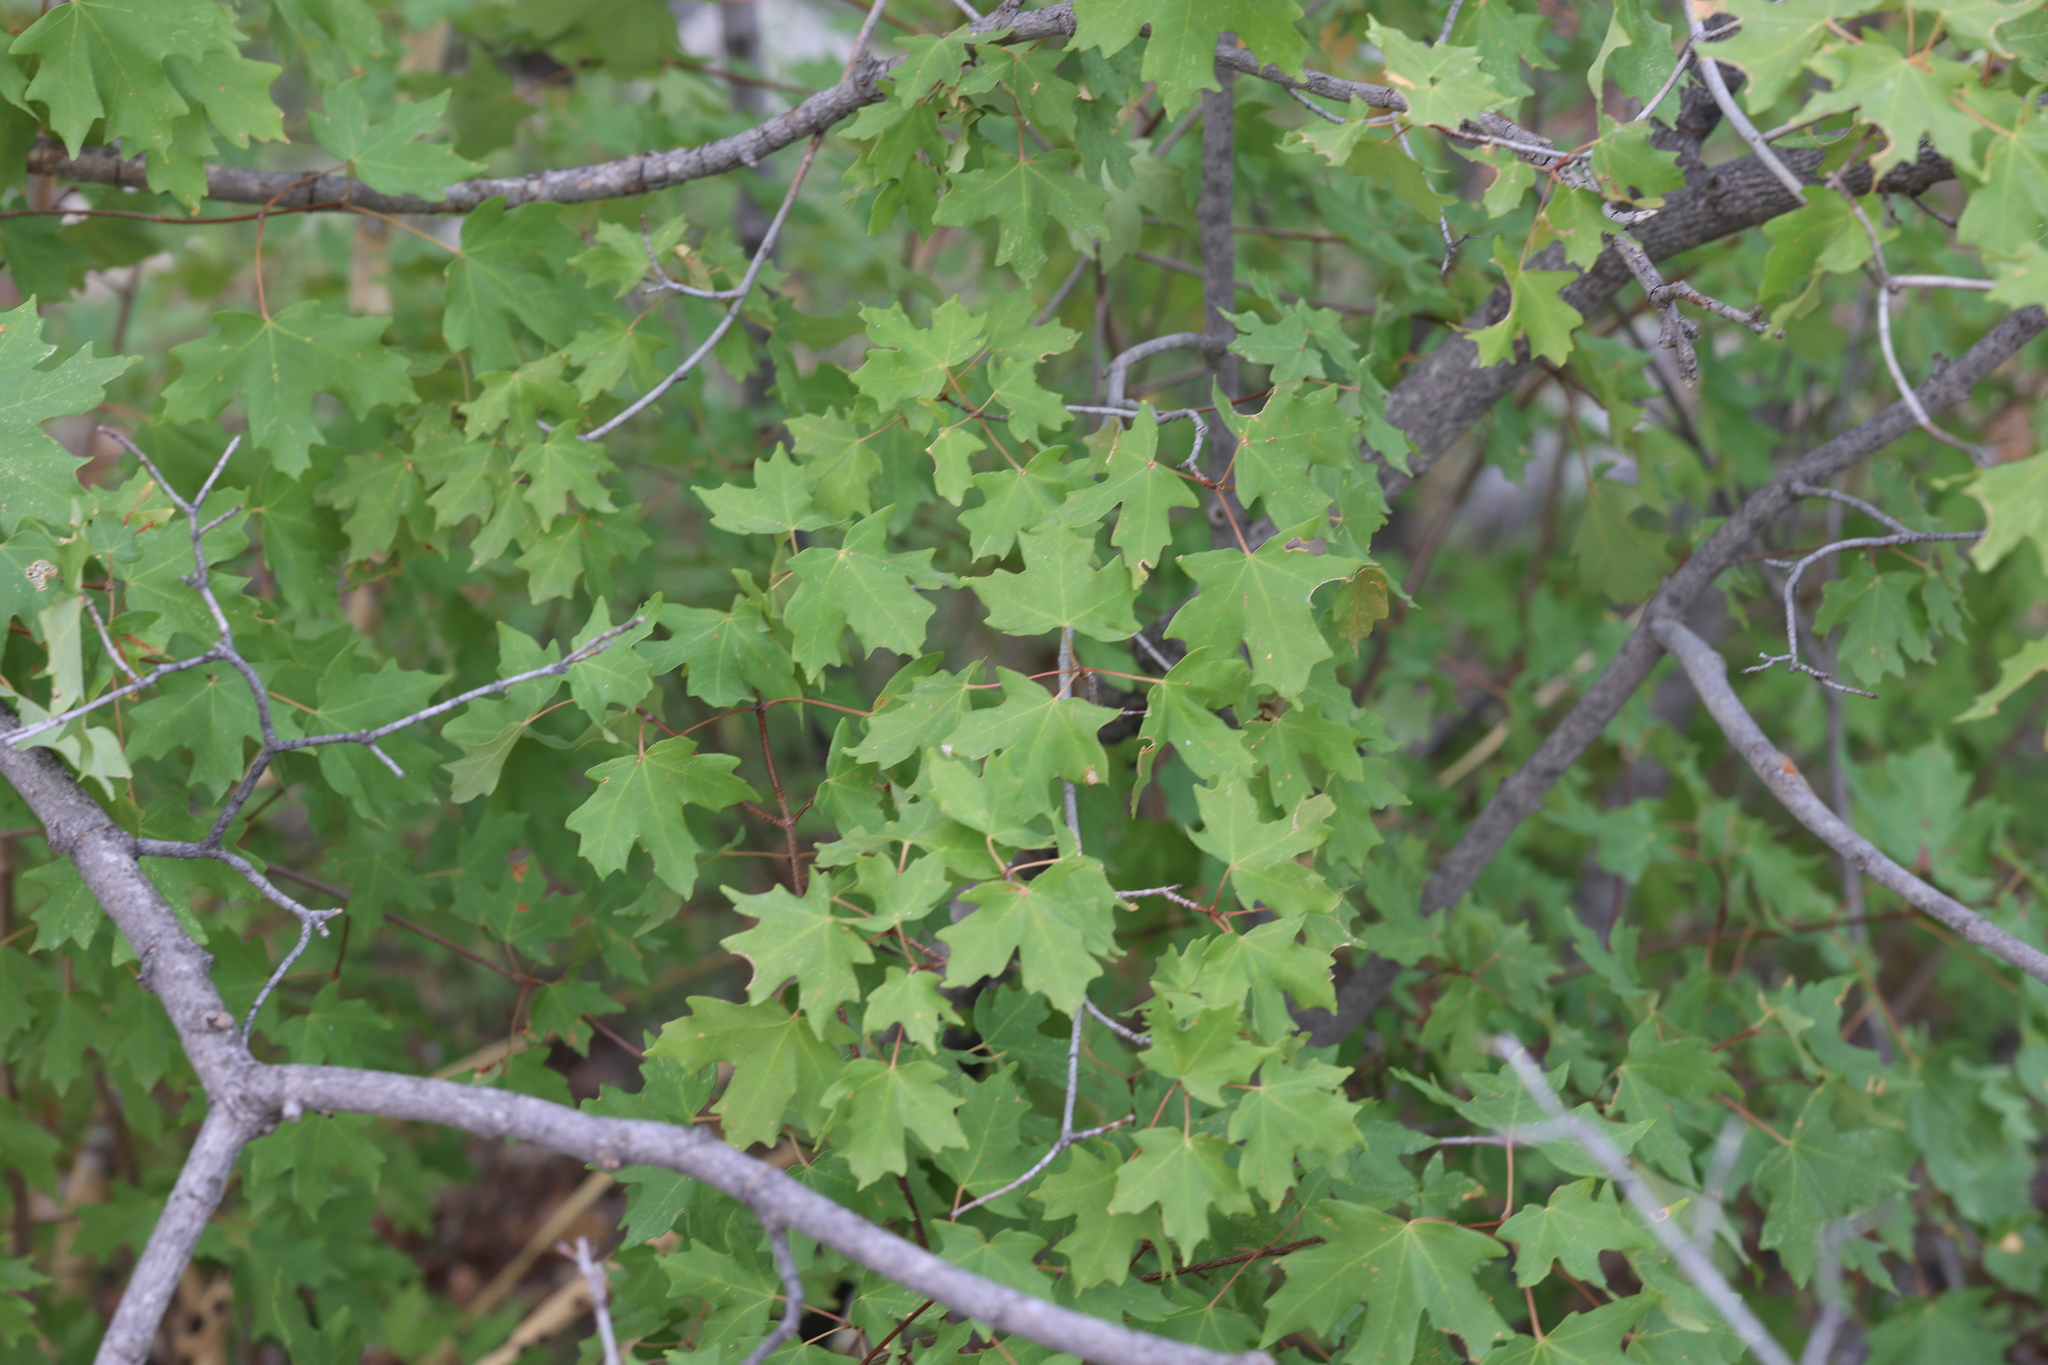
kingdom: Plantae
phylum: Tracheophyta
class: Magnoliopsida
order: Sapindales
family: Sapindaceae
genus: Acer
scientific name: Acer grandidentatum
